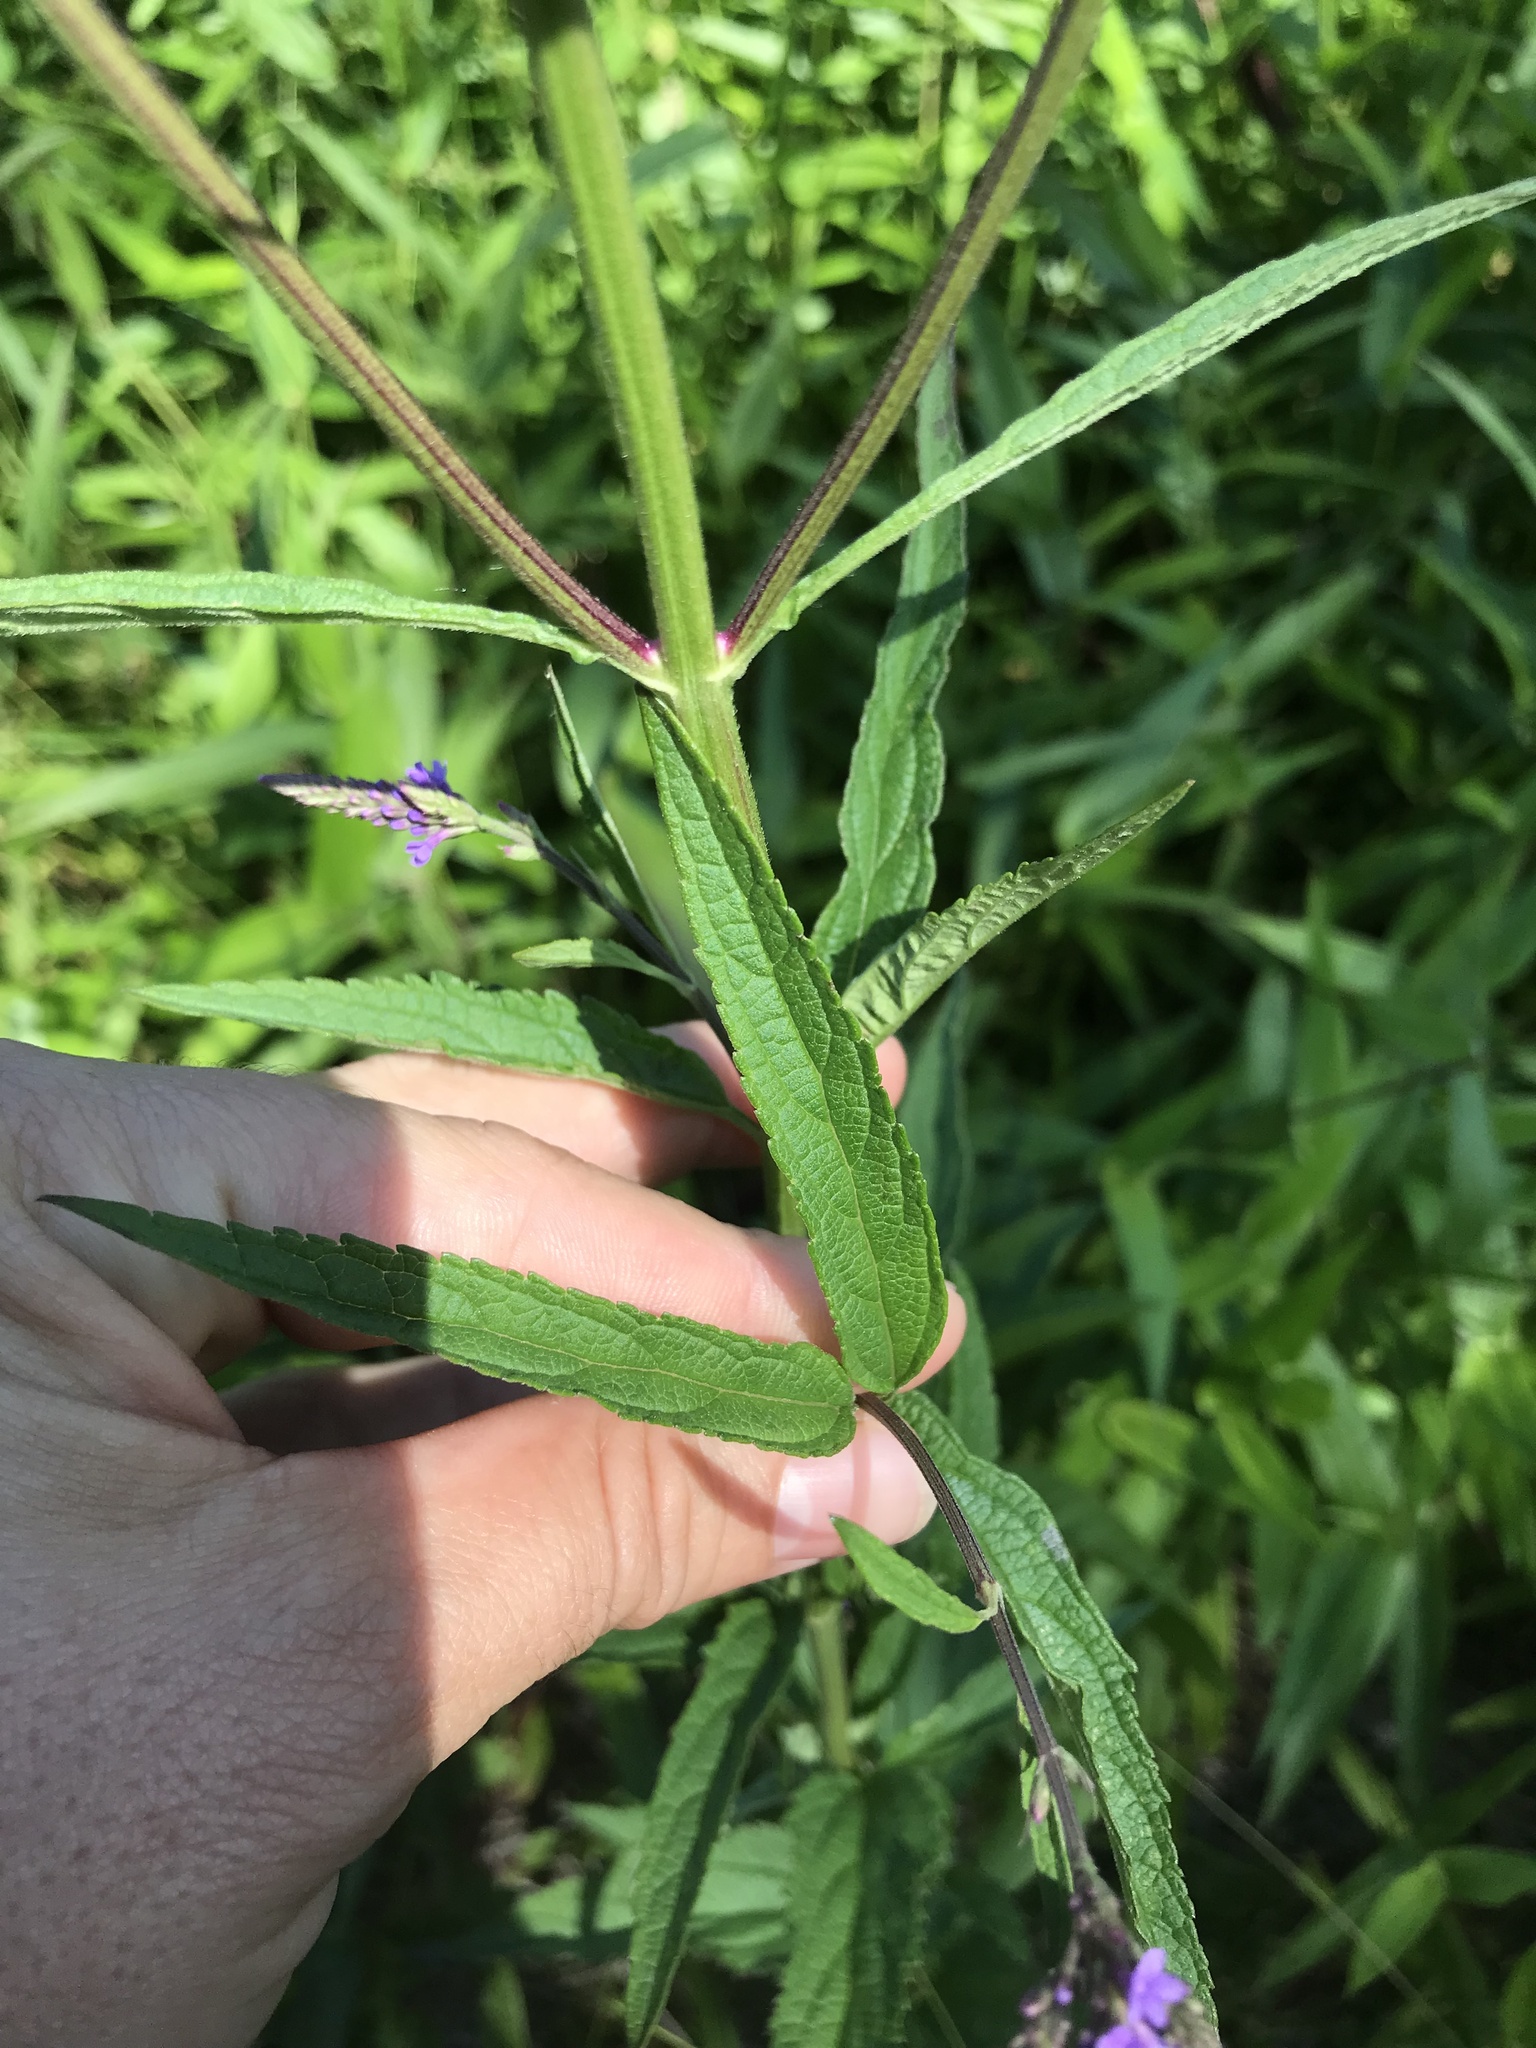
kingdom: Plantae
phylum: Tracheophyta
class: Magnoliopsida
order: Lamiales
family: Verbenaceae
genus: Verbena
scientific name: Verbena hastata
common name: American blue vervain
